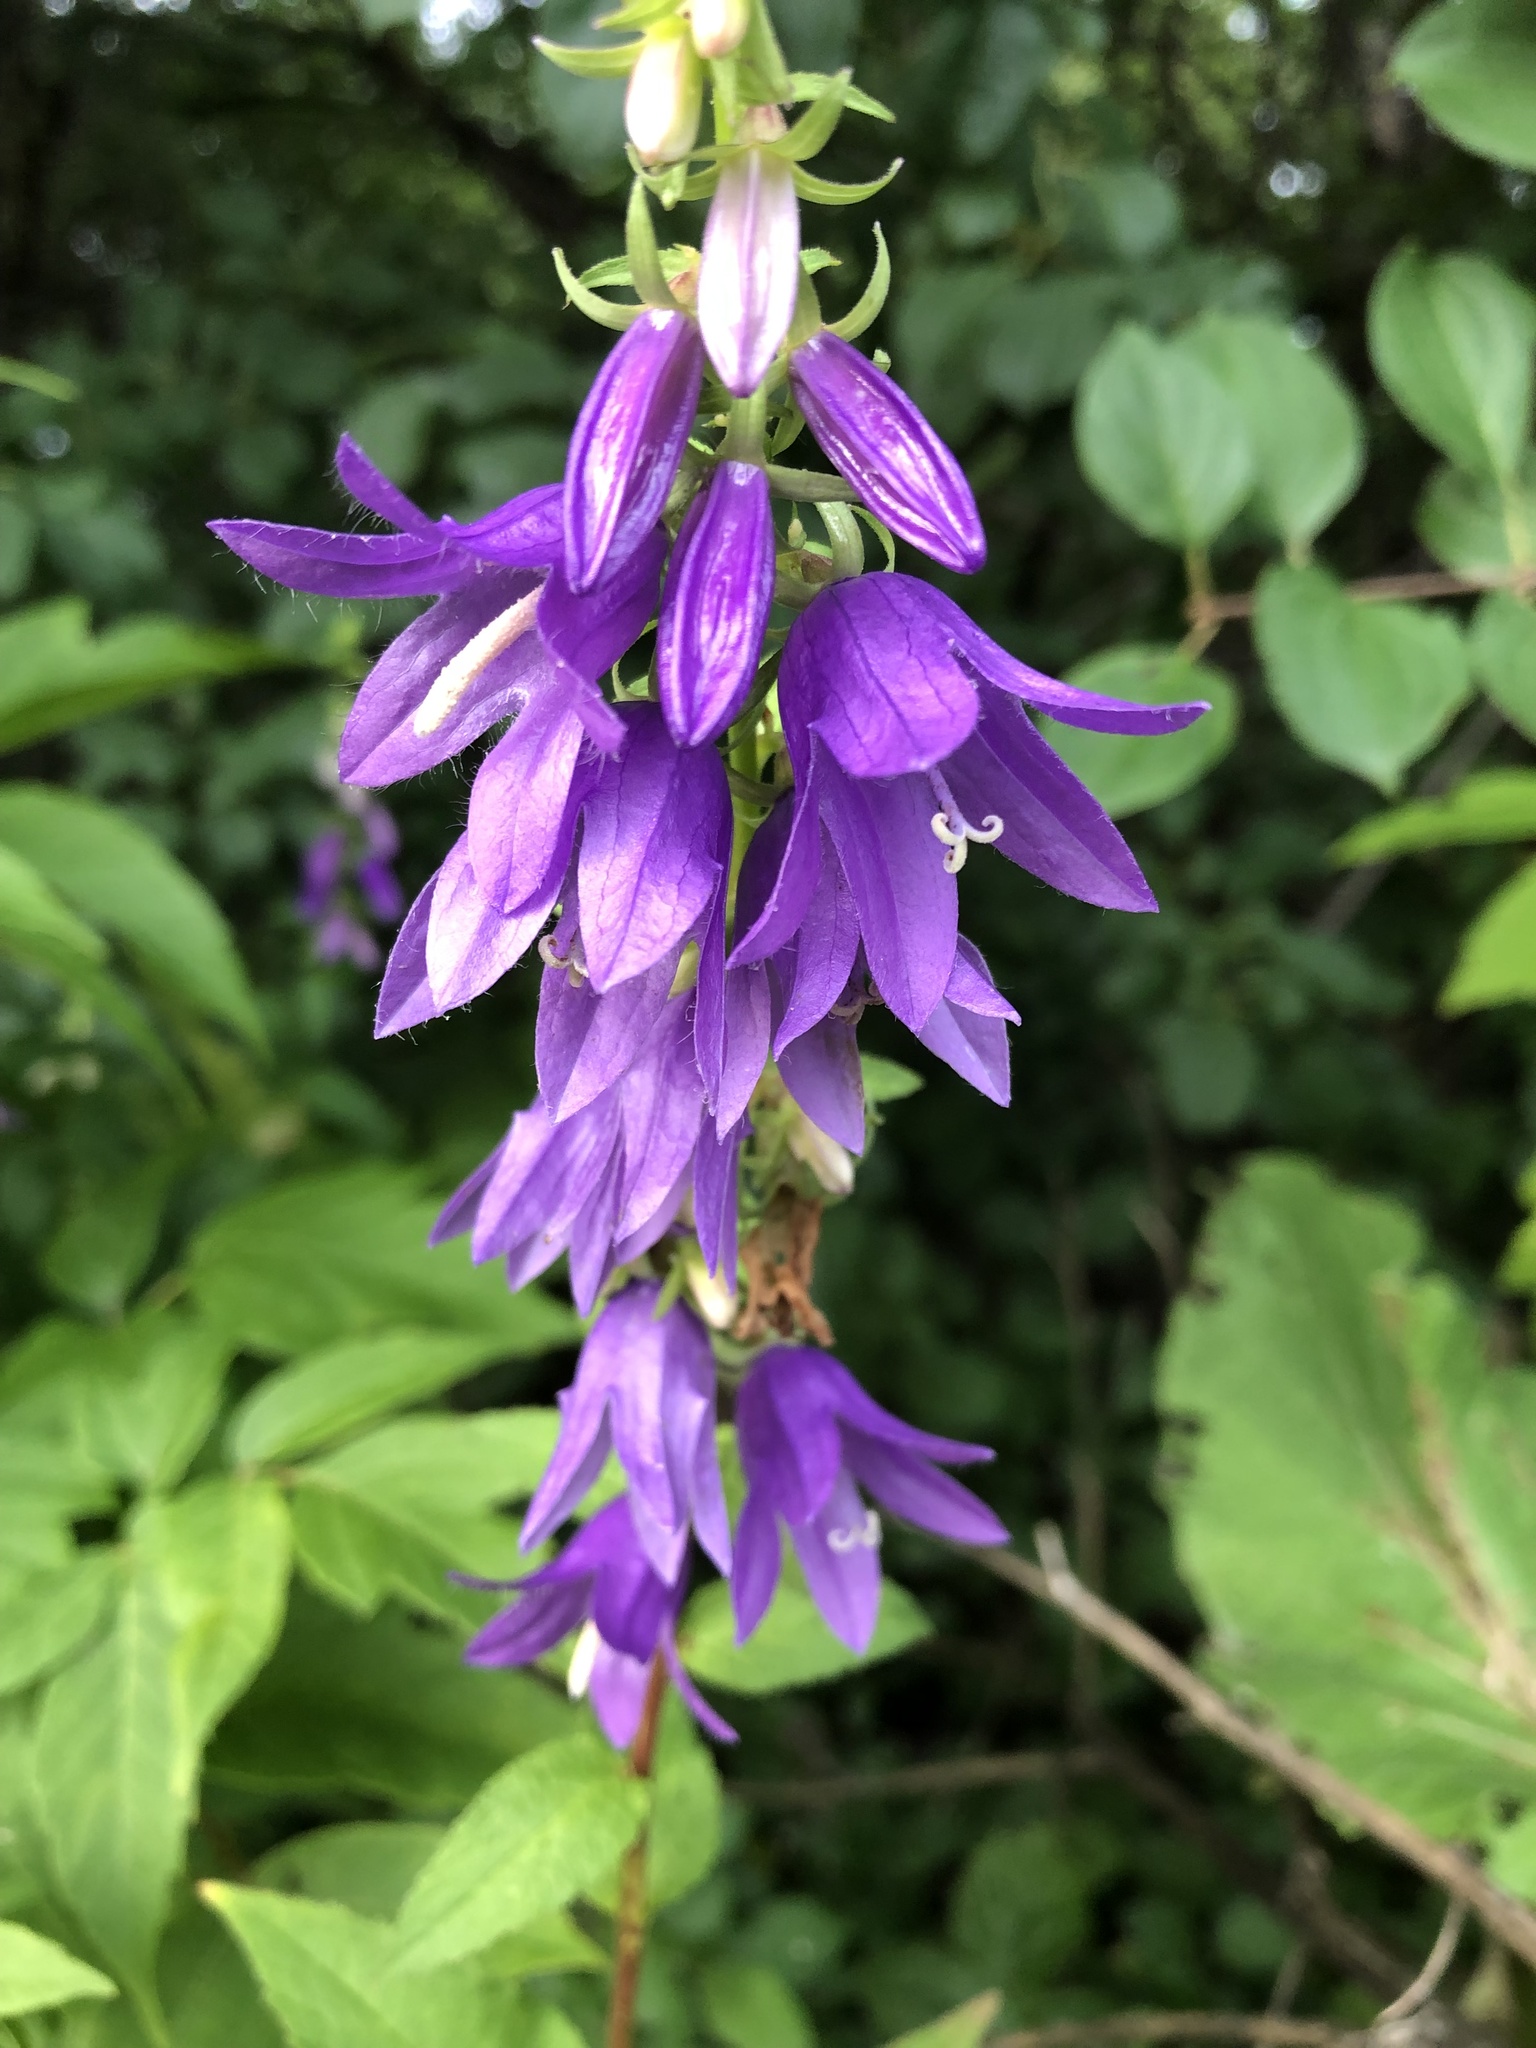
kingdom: Plantae
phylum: Tracheophyta
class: Magnoliopsida
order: Asterales
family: Campanulaceae
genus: Campanula
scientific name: Campanula rapunculoides
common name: Creeping bellflower
